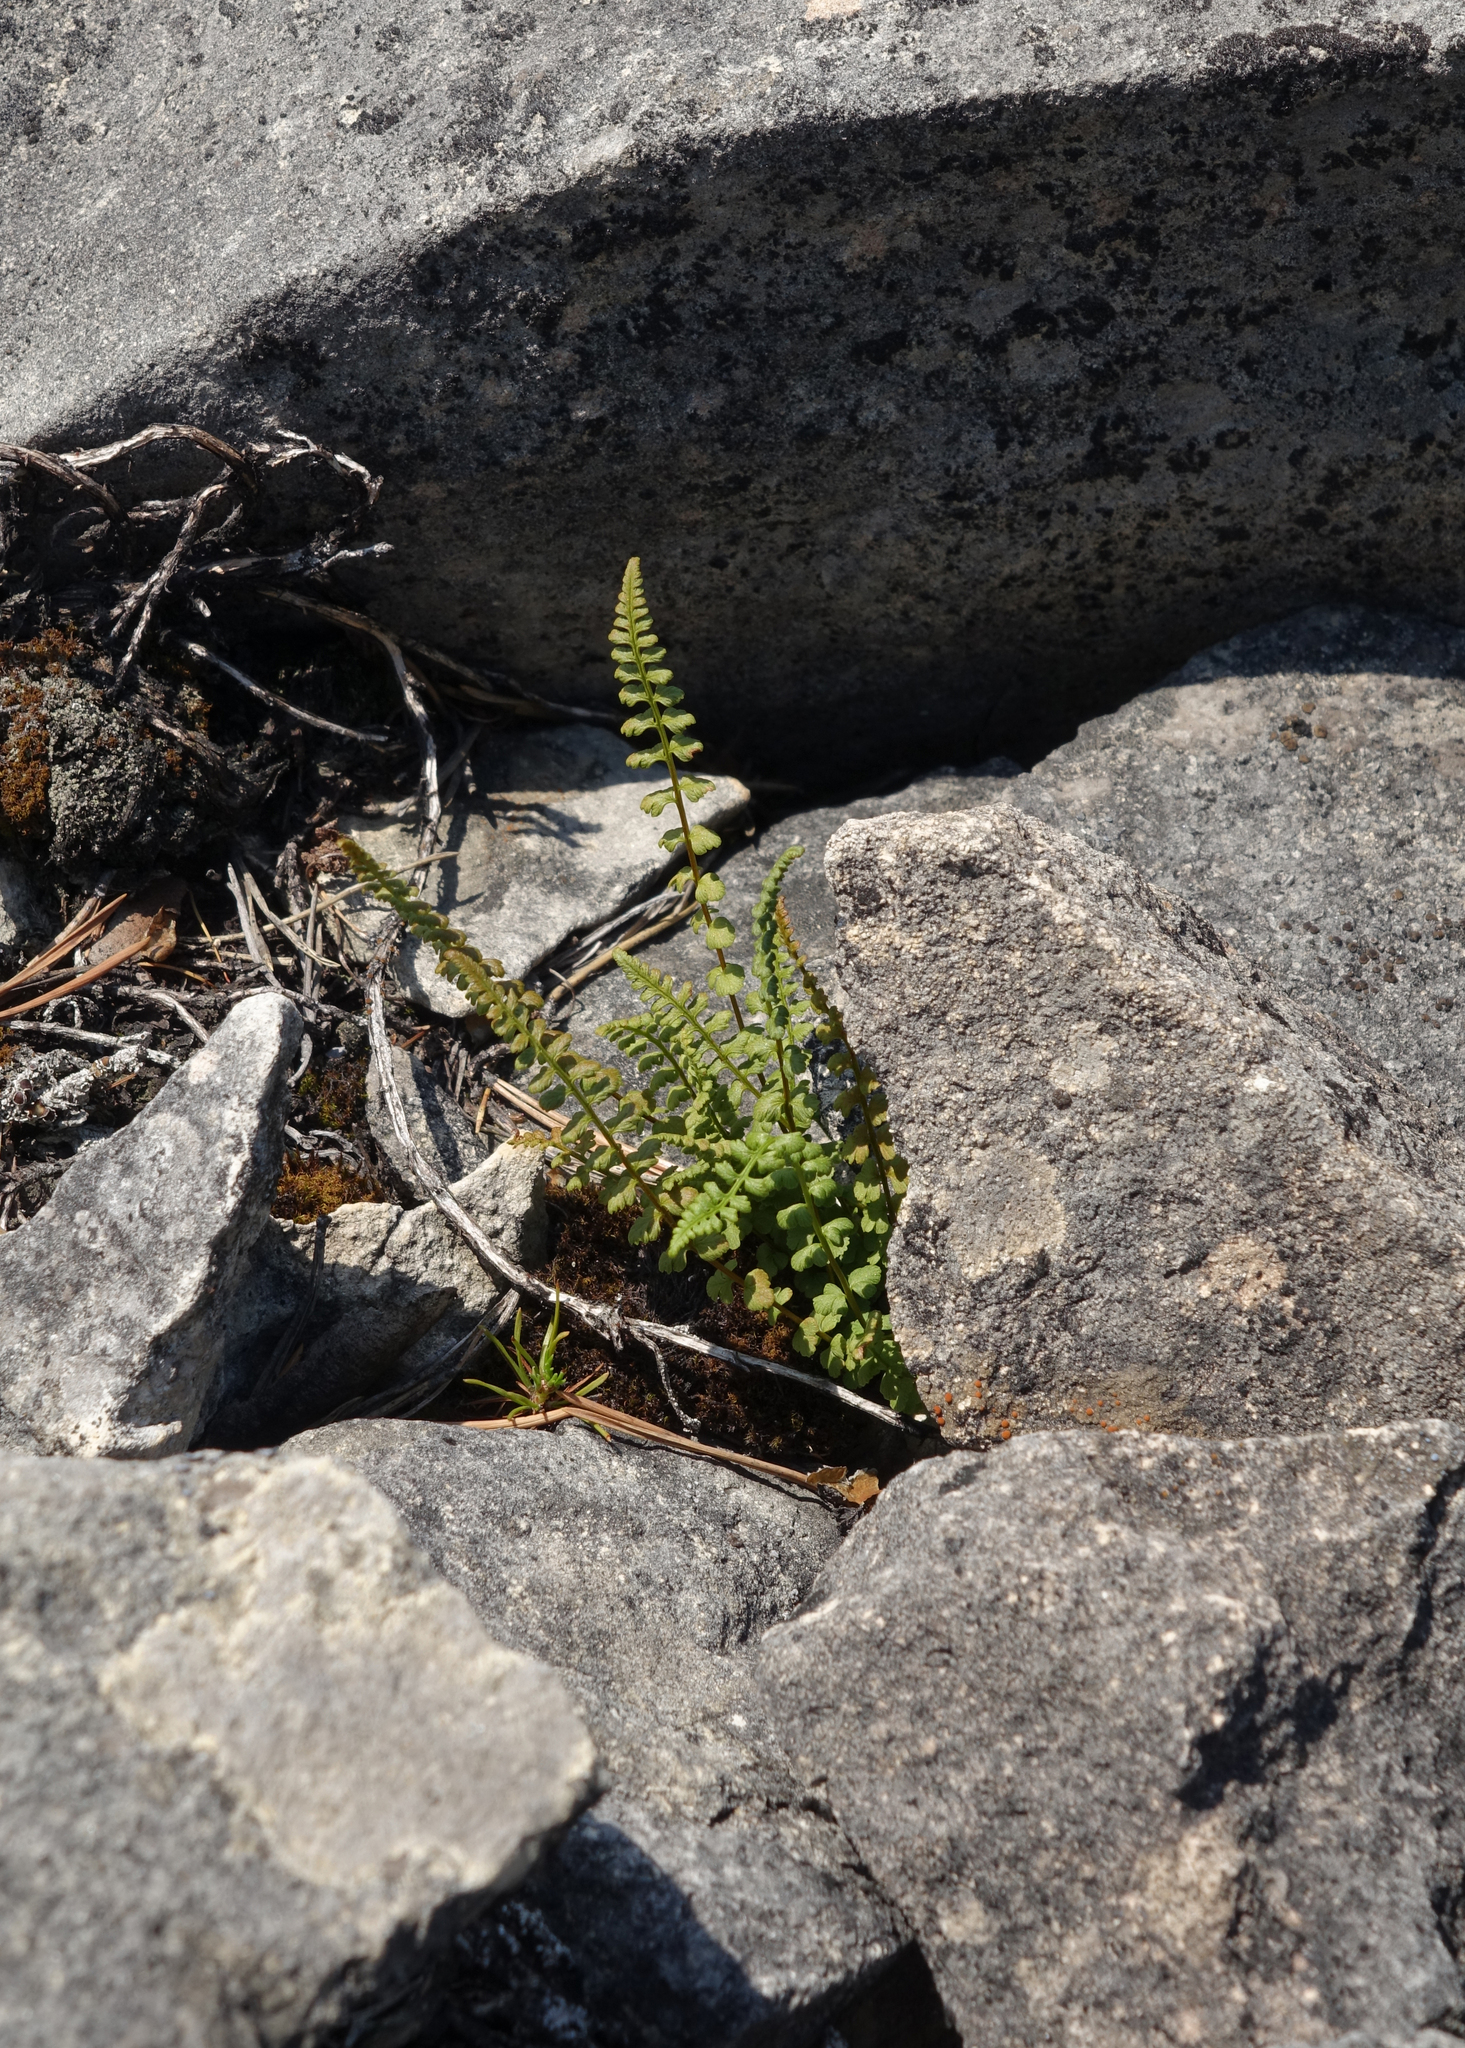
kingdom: Plantae
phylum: Tracheophyta
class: Polypodiopsida
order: Polypodiales
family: Woodsiaceae
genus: Woodsia
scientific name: Woodsia glabella
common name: Smooth woodsia
